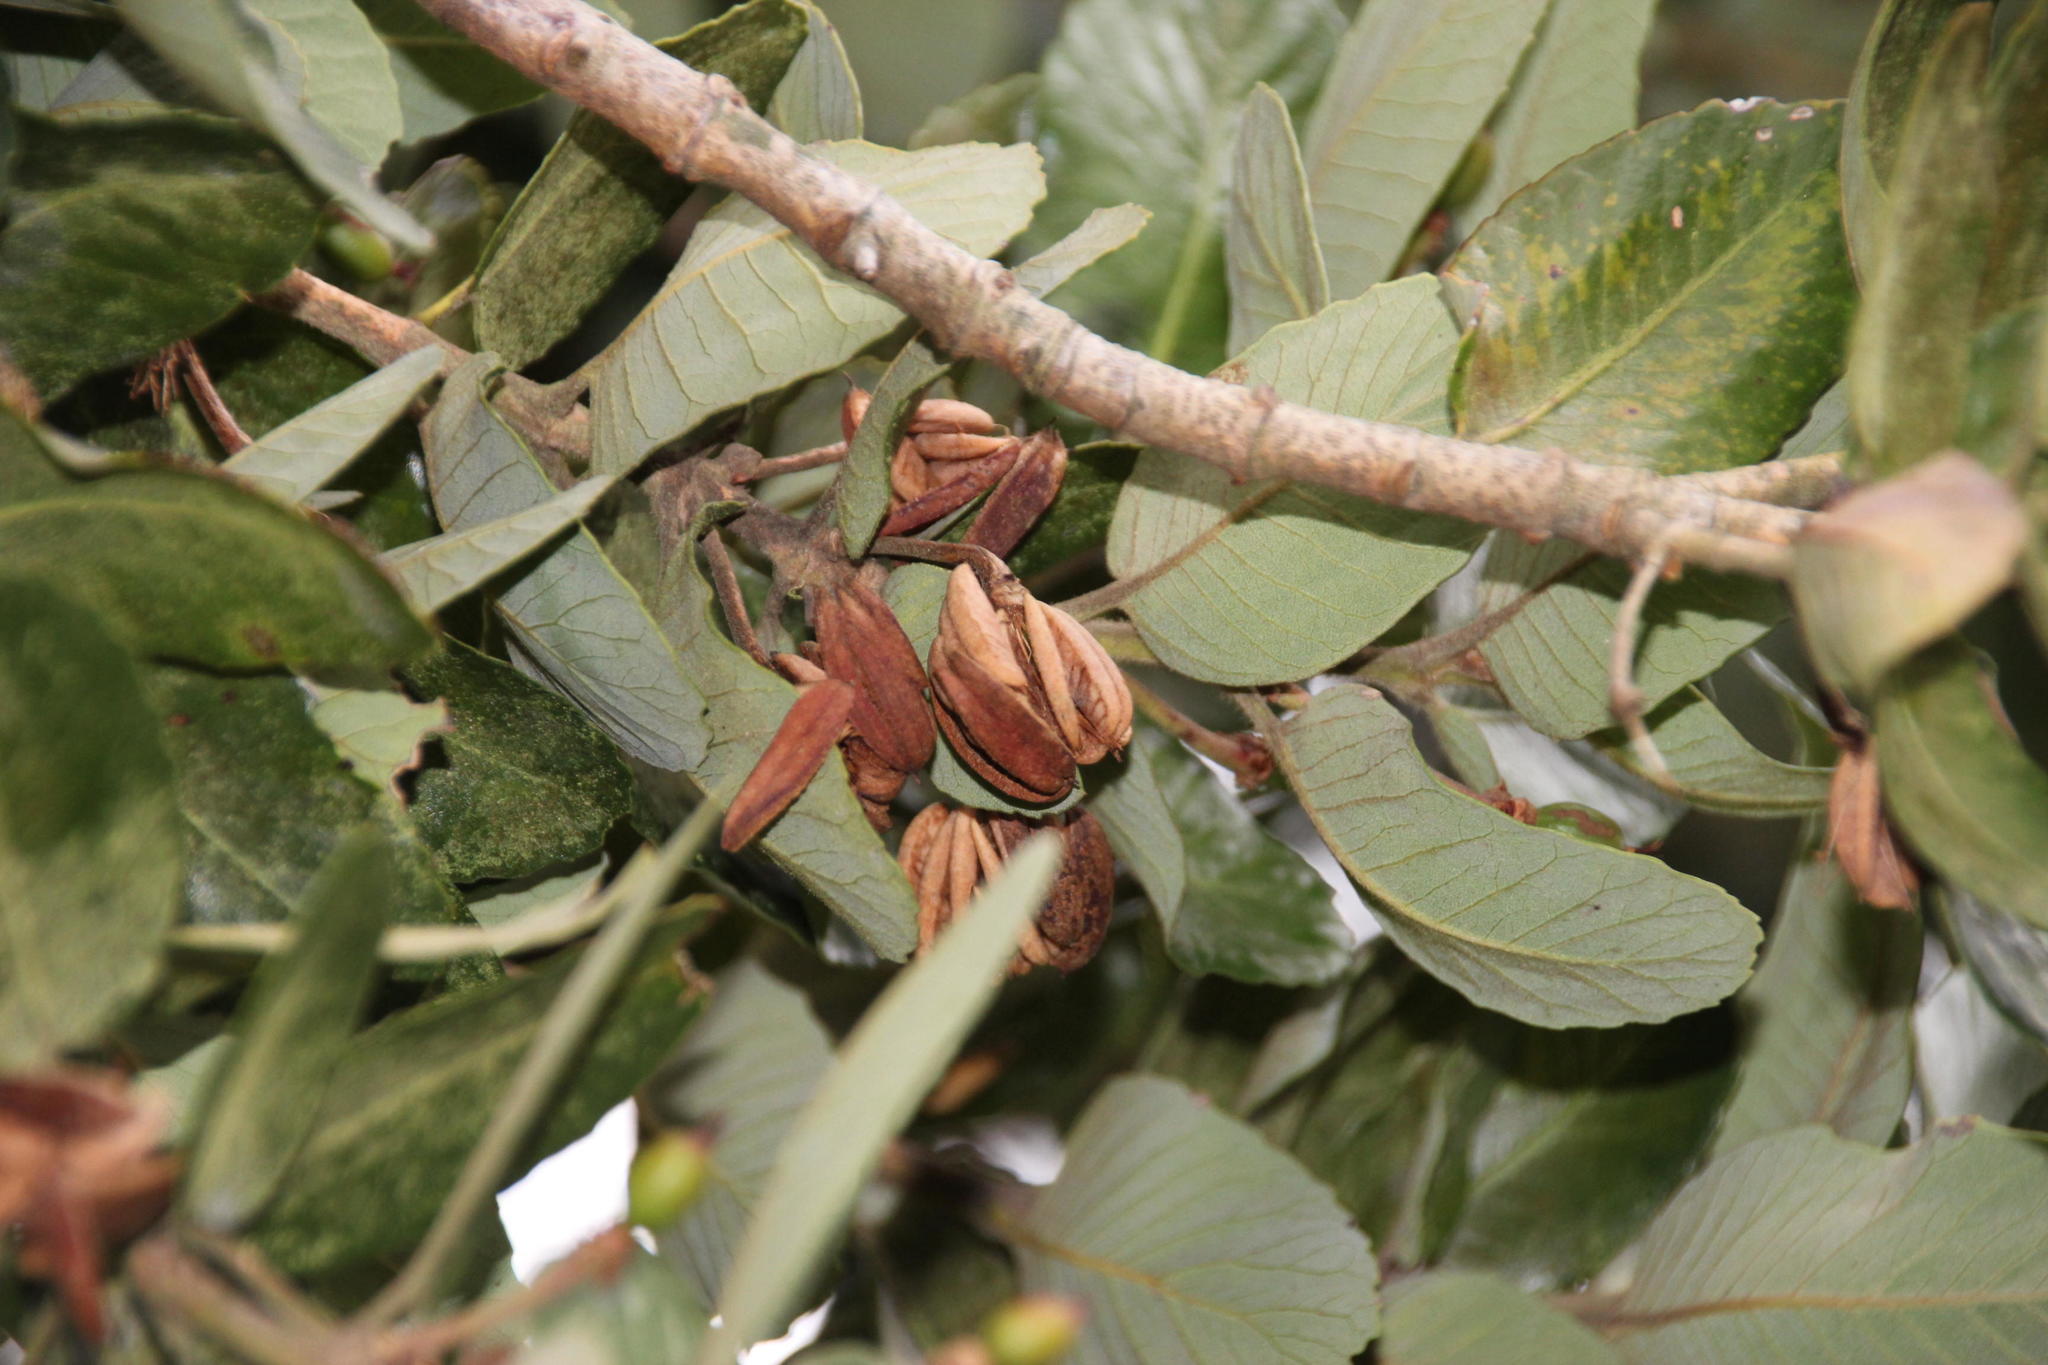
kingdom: Plantae
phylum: Tracheophyta
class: Magnoliopsida
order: Oxalidales
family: Cunoniaceae
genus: Eucryphia
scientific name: Eucryphia cordifolia
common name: Ulmo
